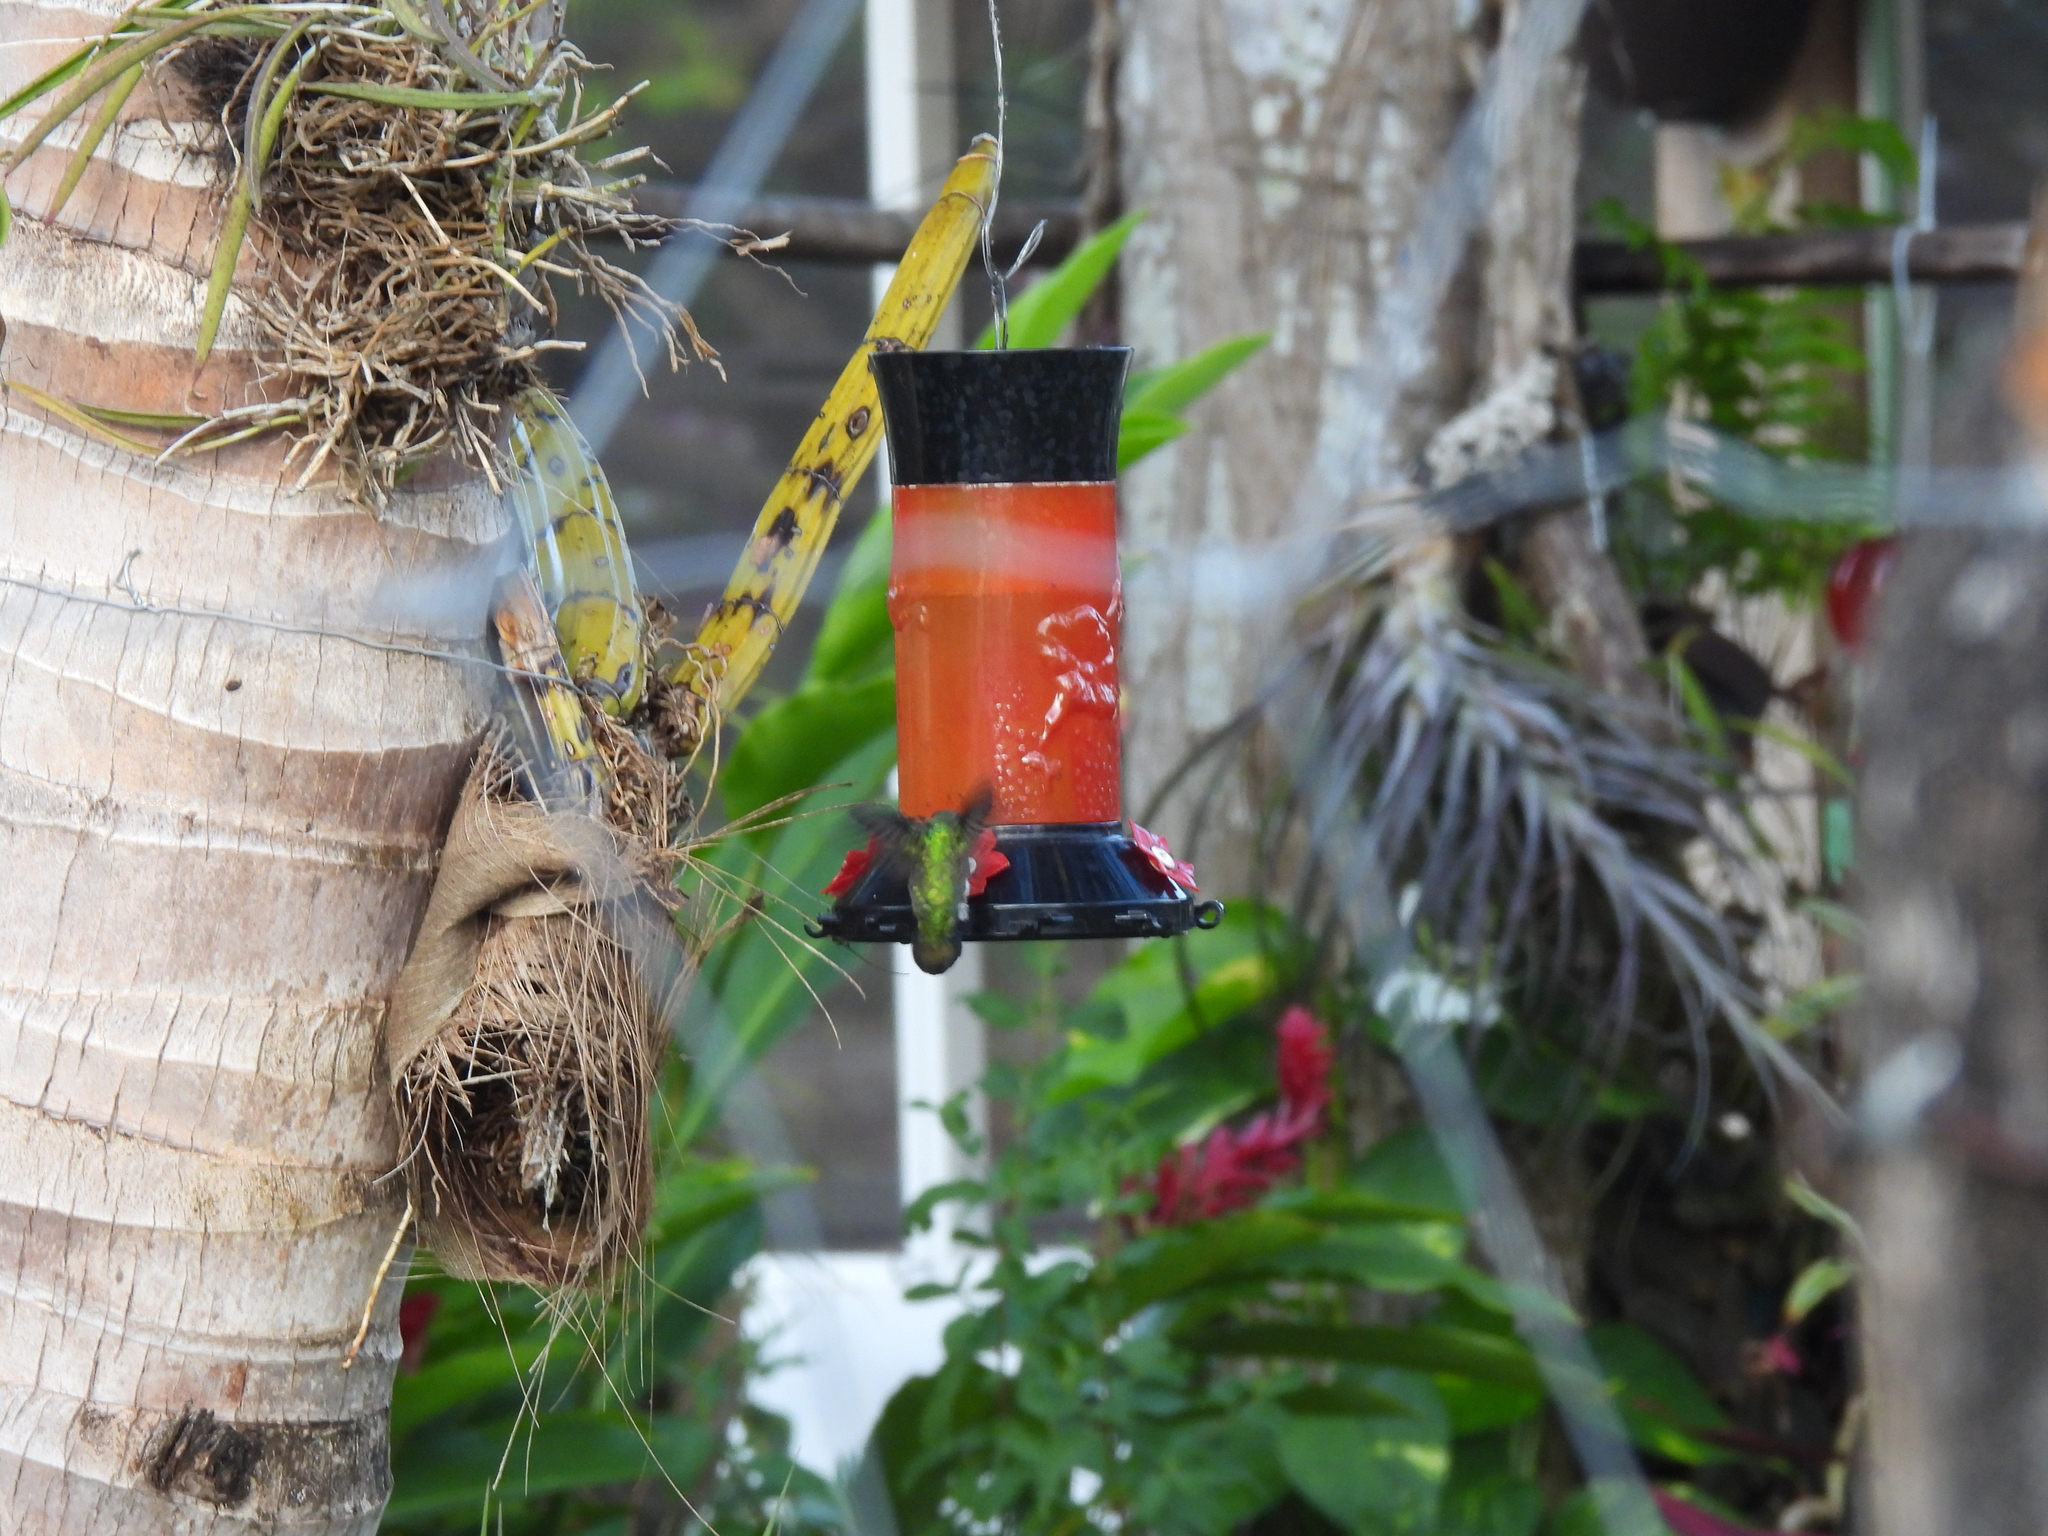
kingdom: Animalia
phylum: Chordata
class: Aves
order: Apodiformes
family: Trochilidae
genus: Anthracothorax
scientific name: Anthracothorax prevostii
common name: Green-breasted mango
